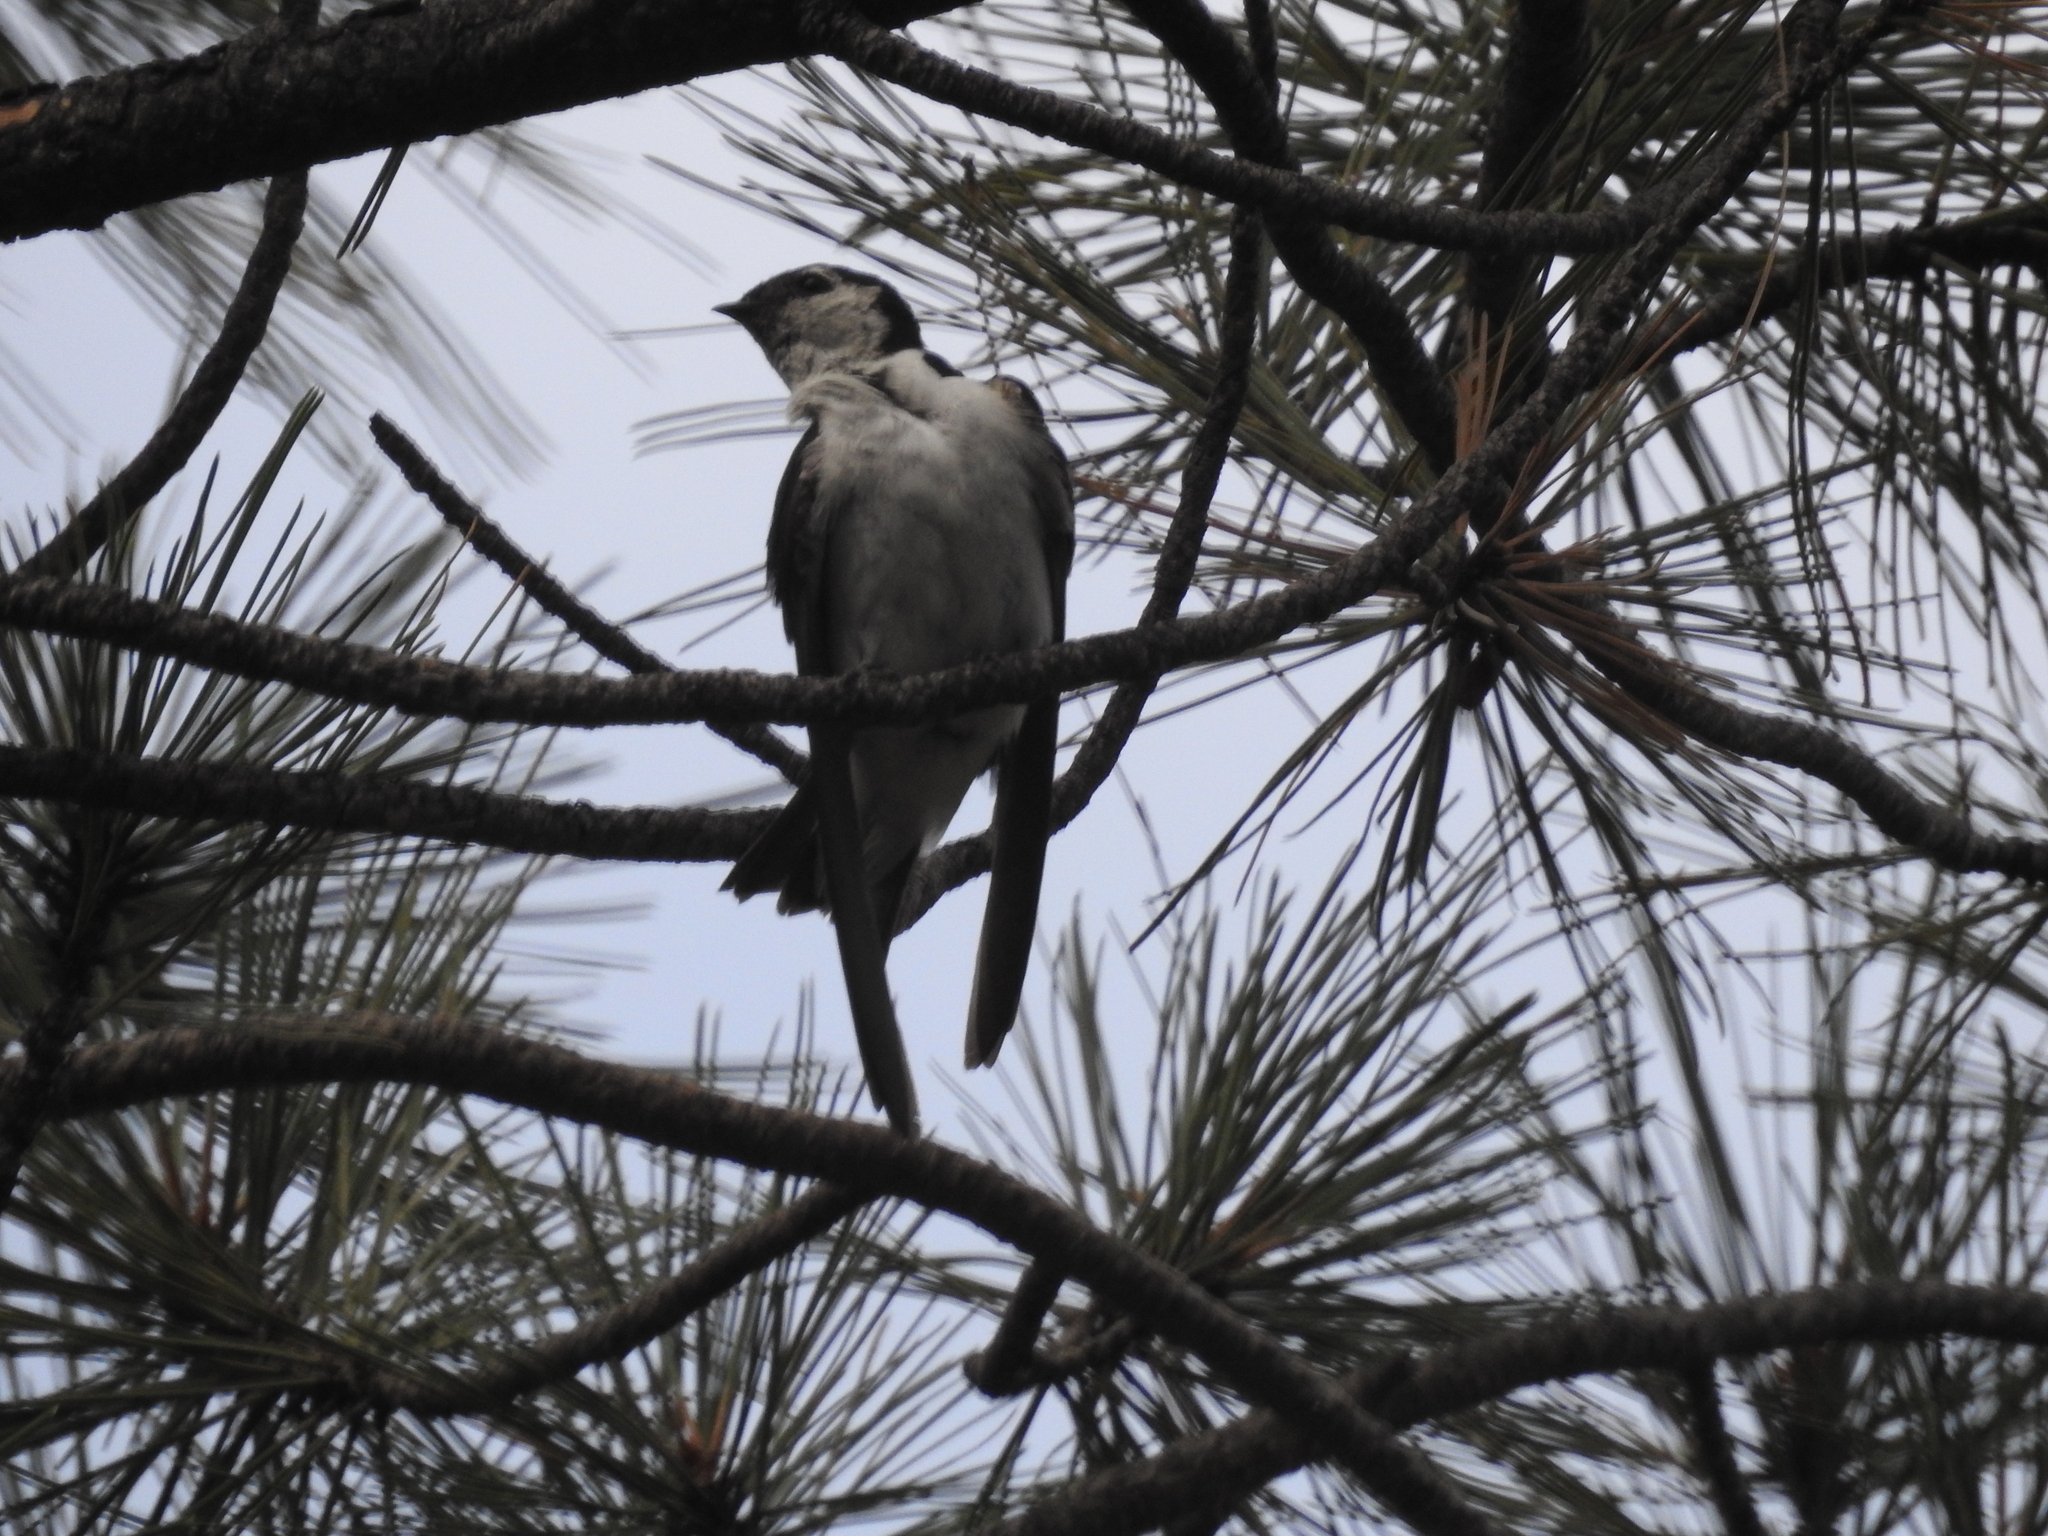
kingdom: Animalia
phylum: Chordata
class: Aves
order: Passeriformes
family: Hirundinidae
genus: Tachycineta
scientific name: Tachycineta thalassina
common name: Violet-green swallow
